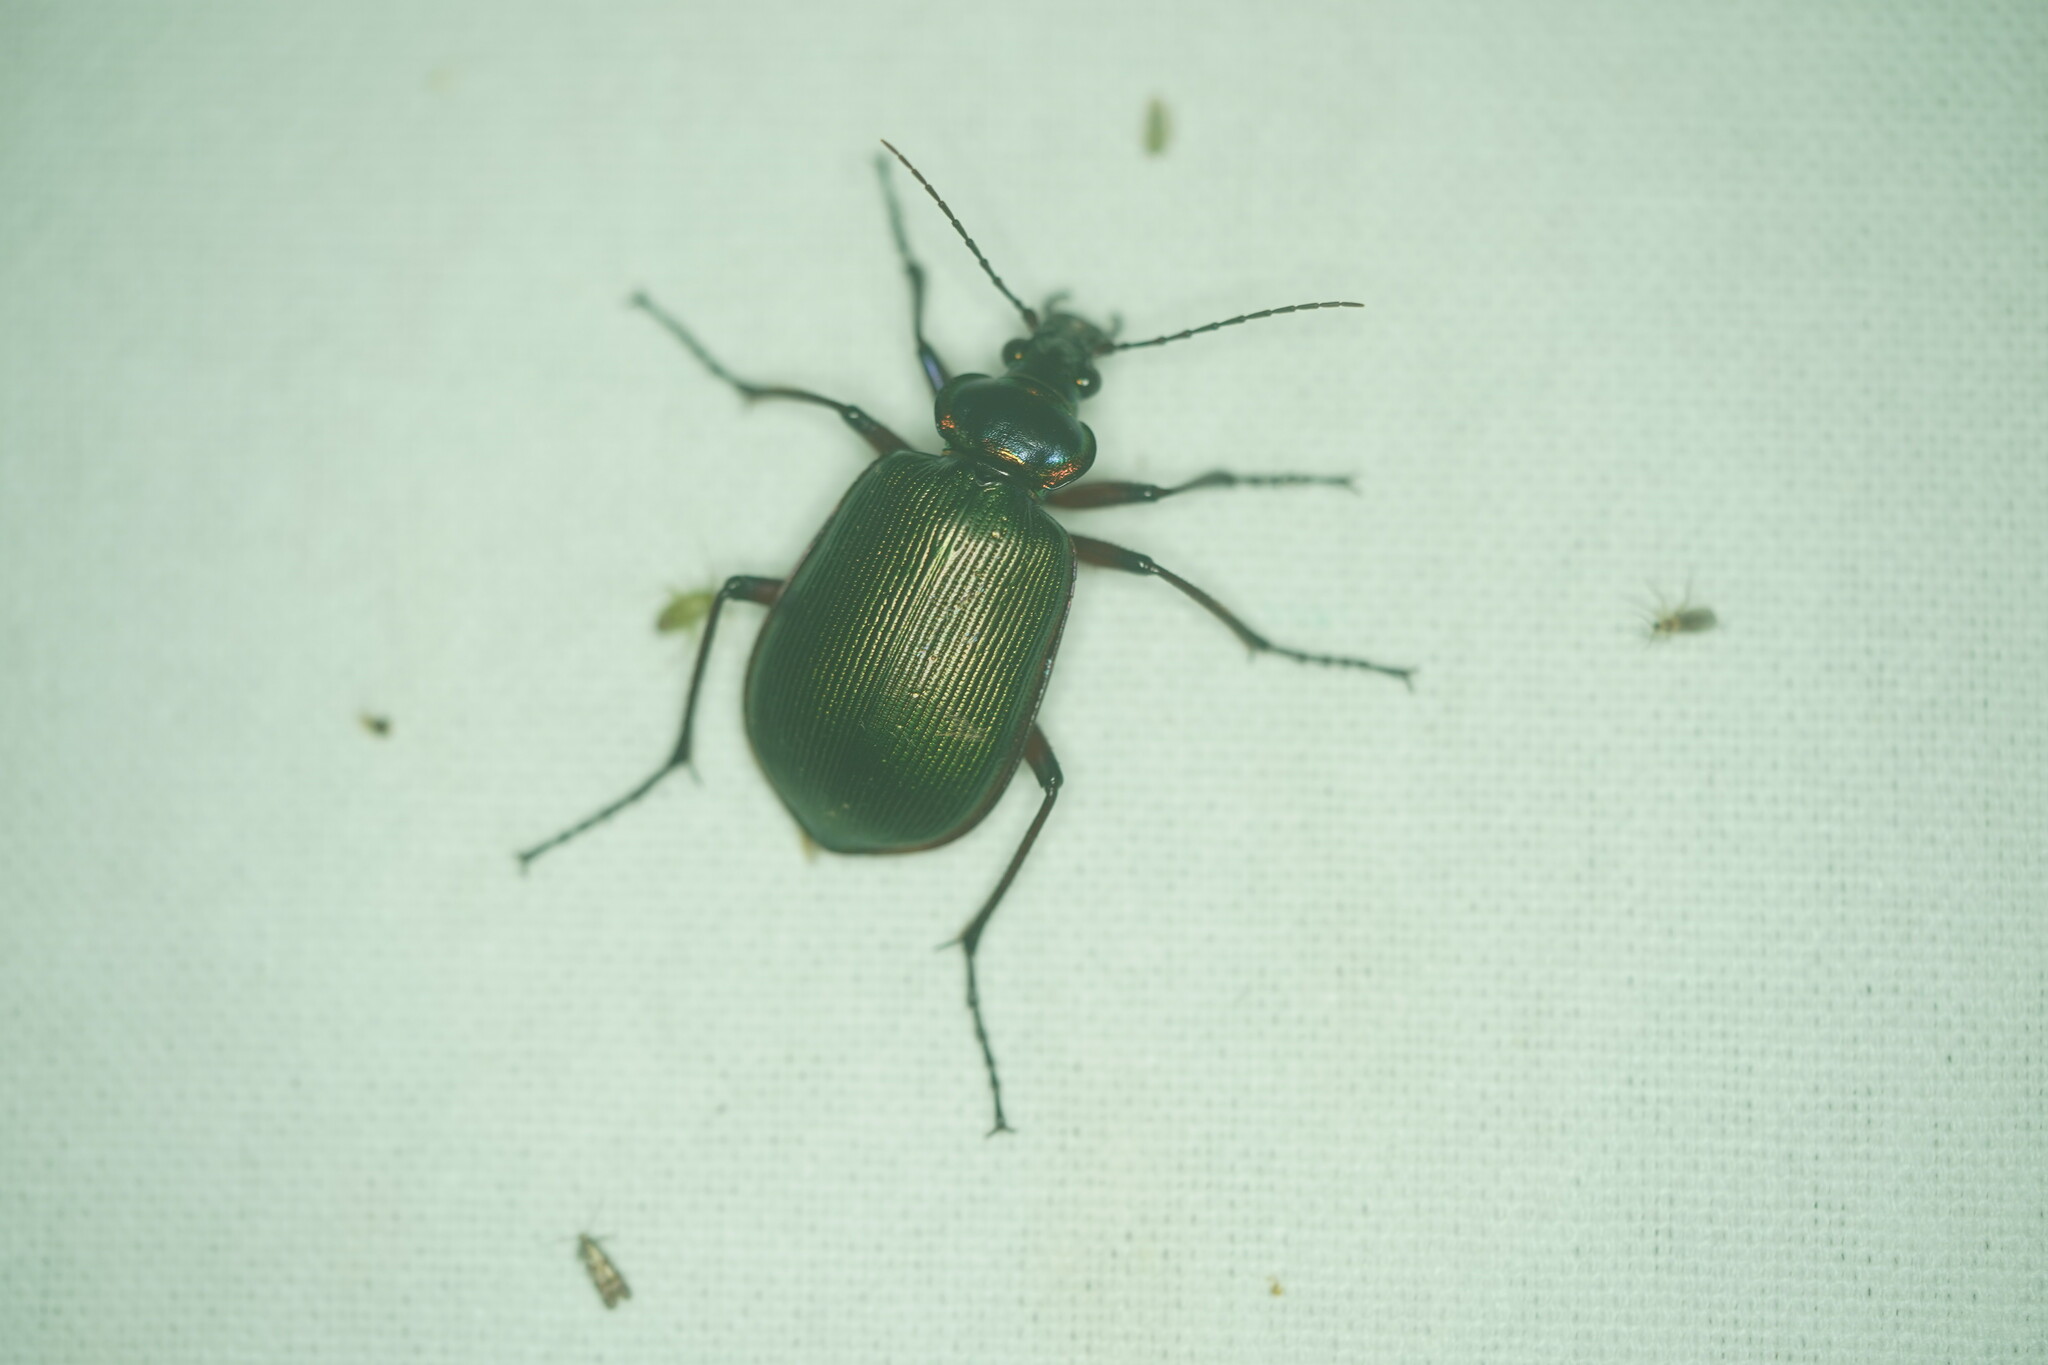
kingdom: Animalia
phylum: Arthropoda
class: Insecta
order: Coleoptera
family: Carabidae
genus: Calosoma
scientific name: Calosoma scrutator
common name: Fiery searcher beetle
